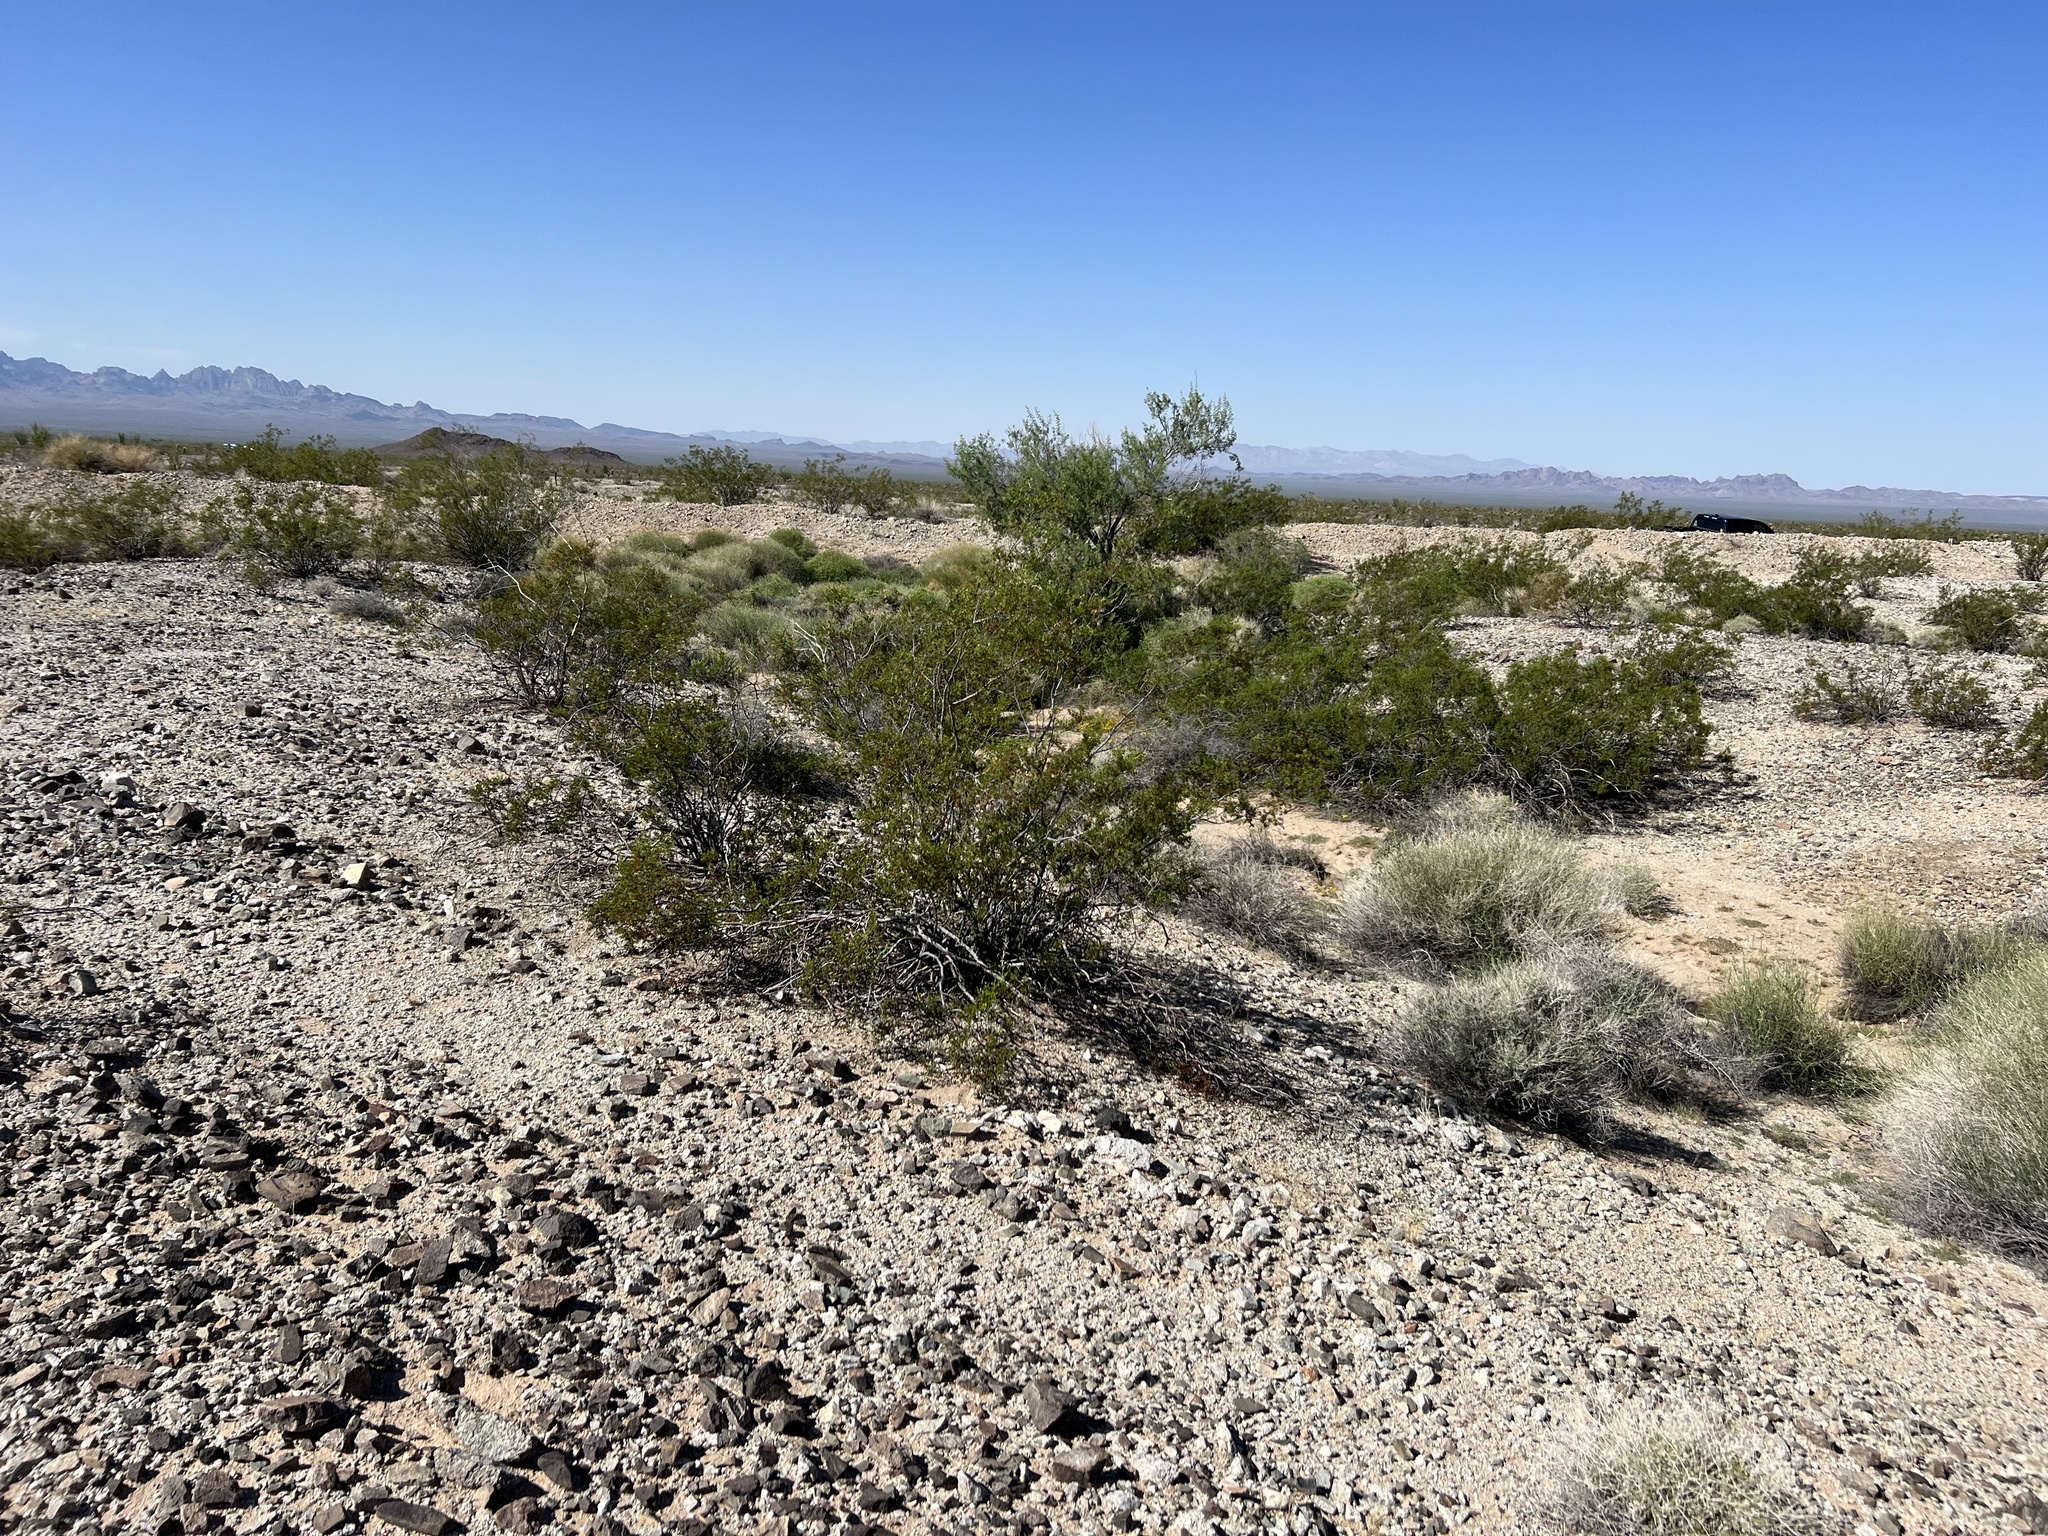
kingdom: Plantae
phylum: Tracheophyta
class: Magnoliopsida
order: Zygophyllales
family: Zygophyllaceae
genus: Larrea
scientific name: Larrea tridentata
